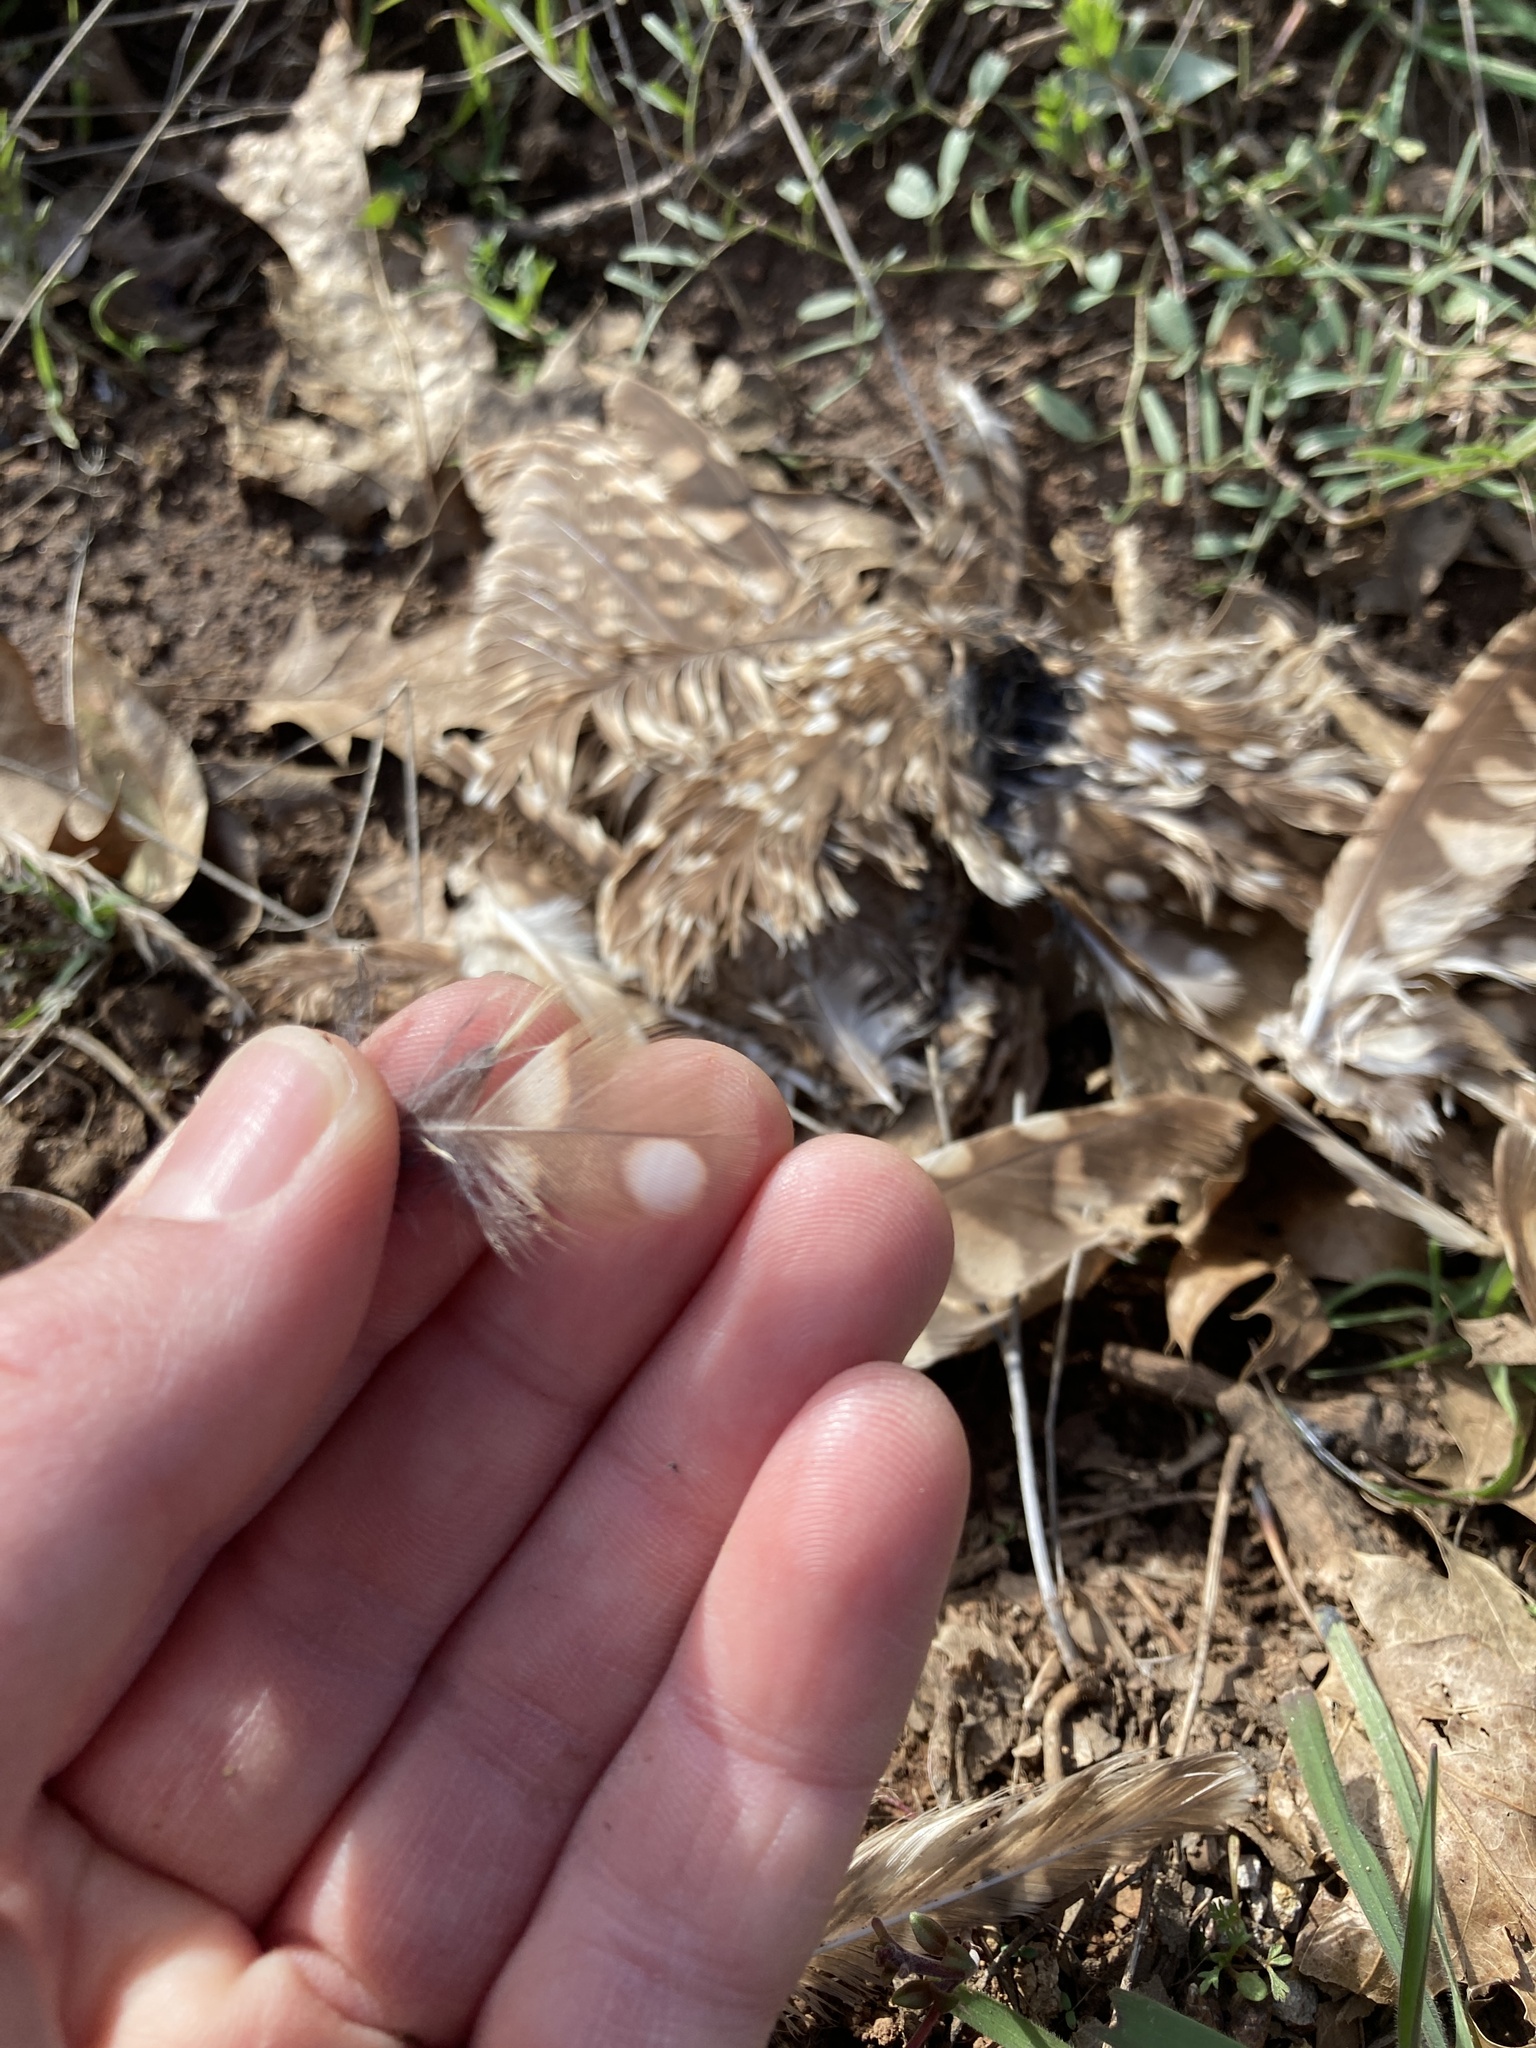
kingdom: Animalia
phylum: Chordata
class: Aves
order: Strigiformes
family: Strigidae
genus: Athene
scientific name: Athene cunicularia
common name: Burrowing owl
